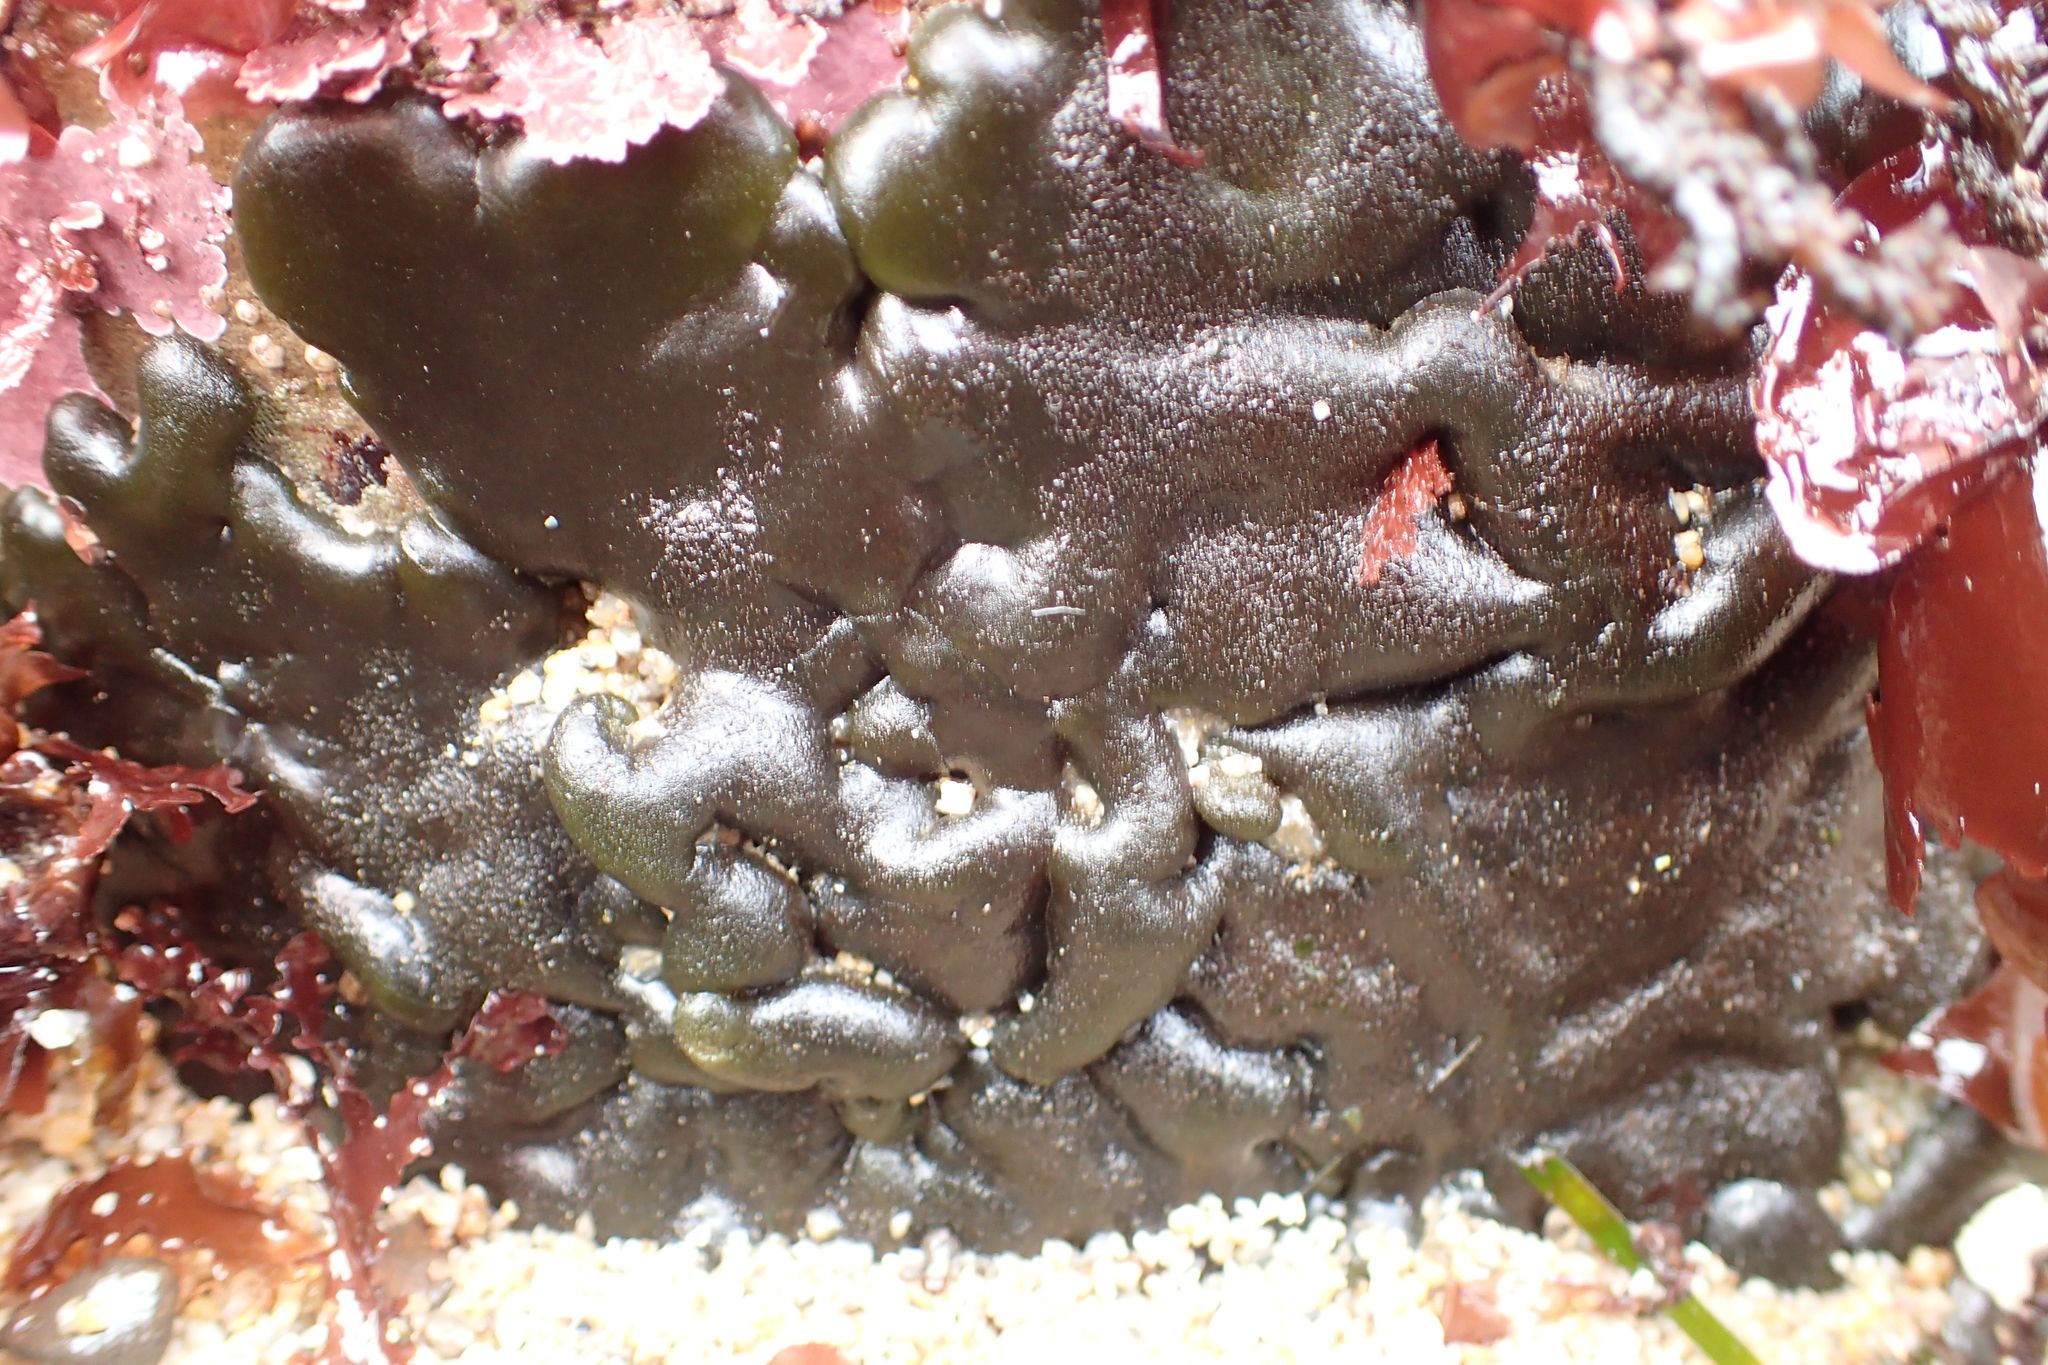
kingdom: Plantae
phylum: Chlorophyta
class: Ulvophyceae
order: Bryopsidales
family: Codiaceae
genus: Codium
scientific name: Codium setchellii
